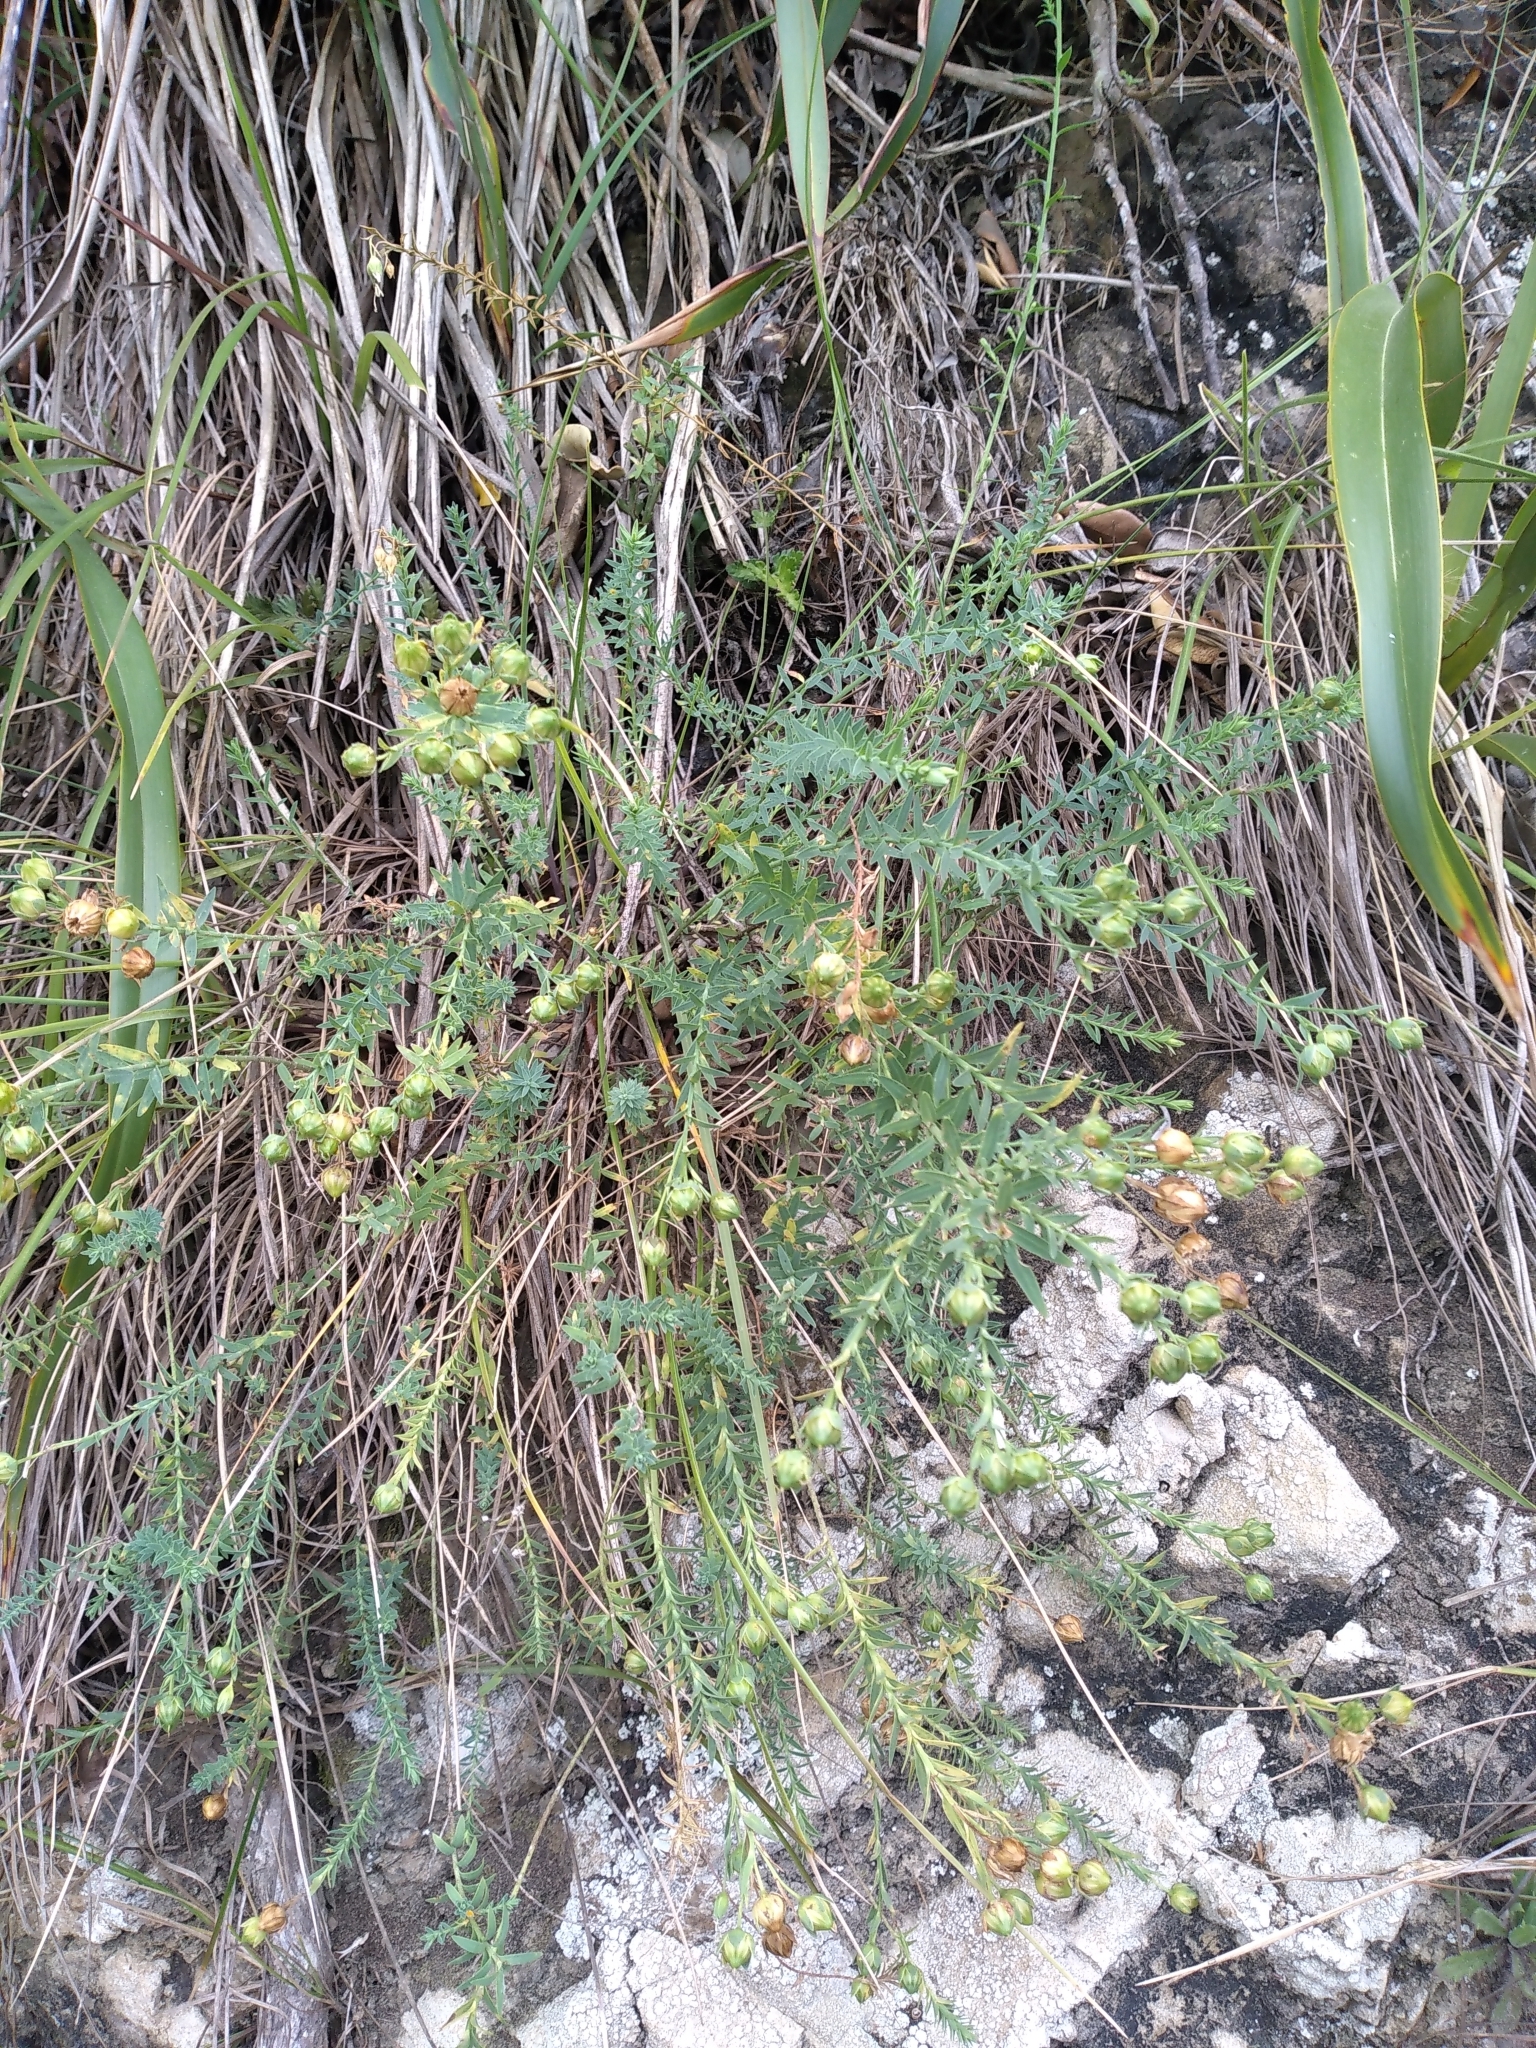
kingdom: Plantae
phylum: Tracheophyta
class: Magnoliopsida
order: Malpighiales
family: Linaceae
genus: Linum
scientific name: Linum monogynum
